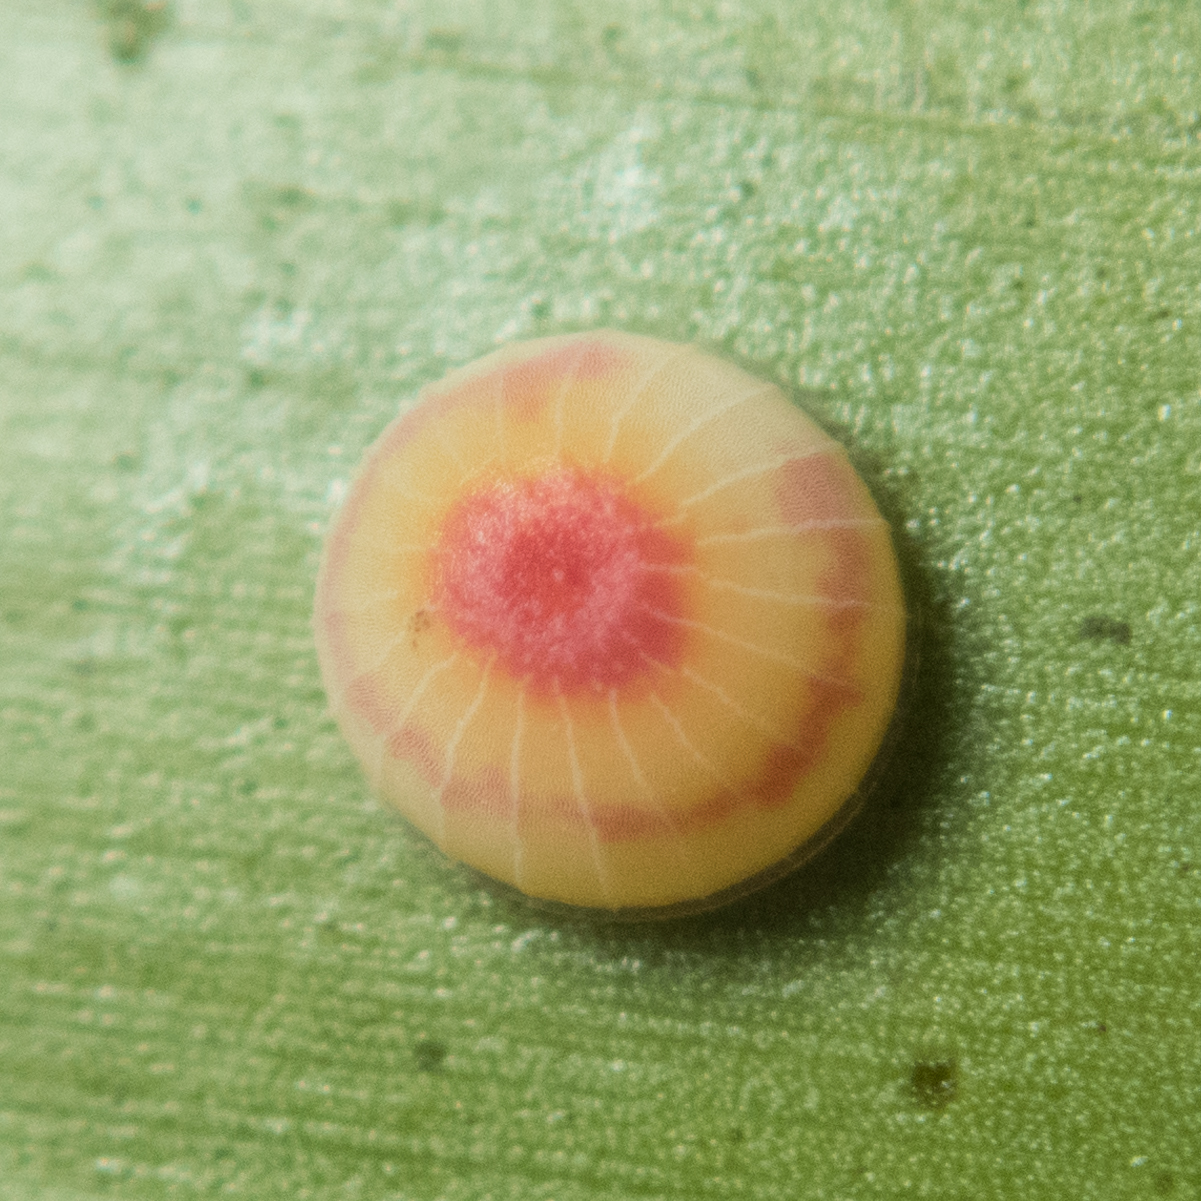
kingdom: Animalia
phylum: Arthropoda
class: Insecta
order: Lepidoptera
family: Hesperiidae
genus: Hidari
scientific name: Hidari bhawani
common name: Veined palmer
